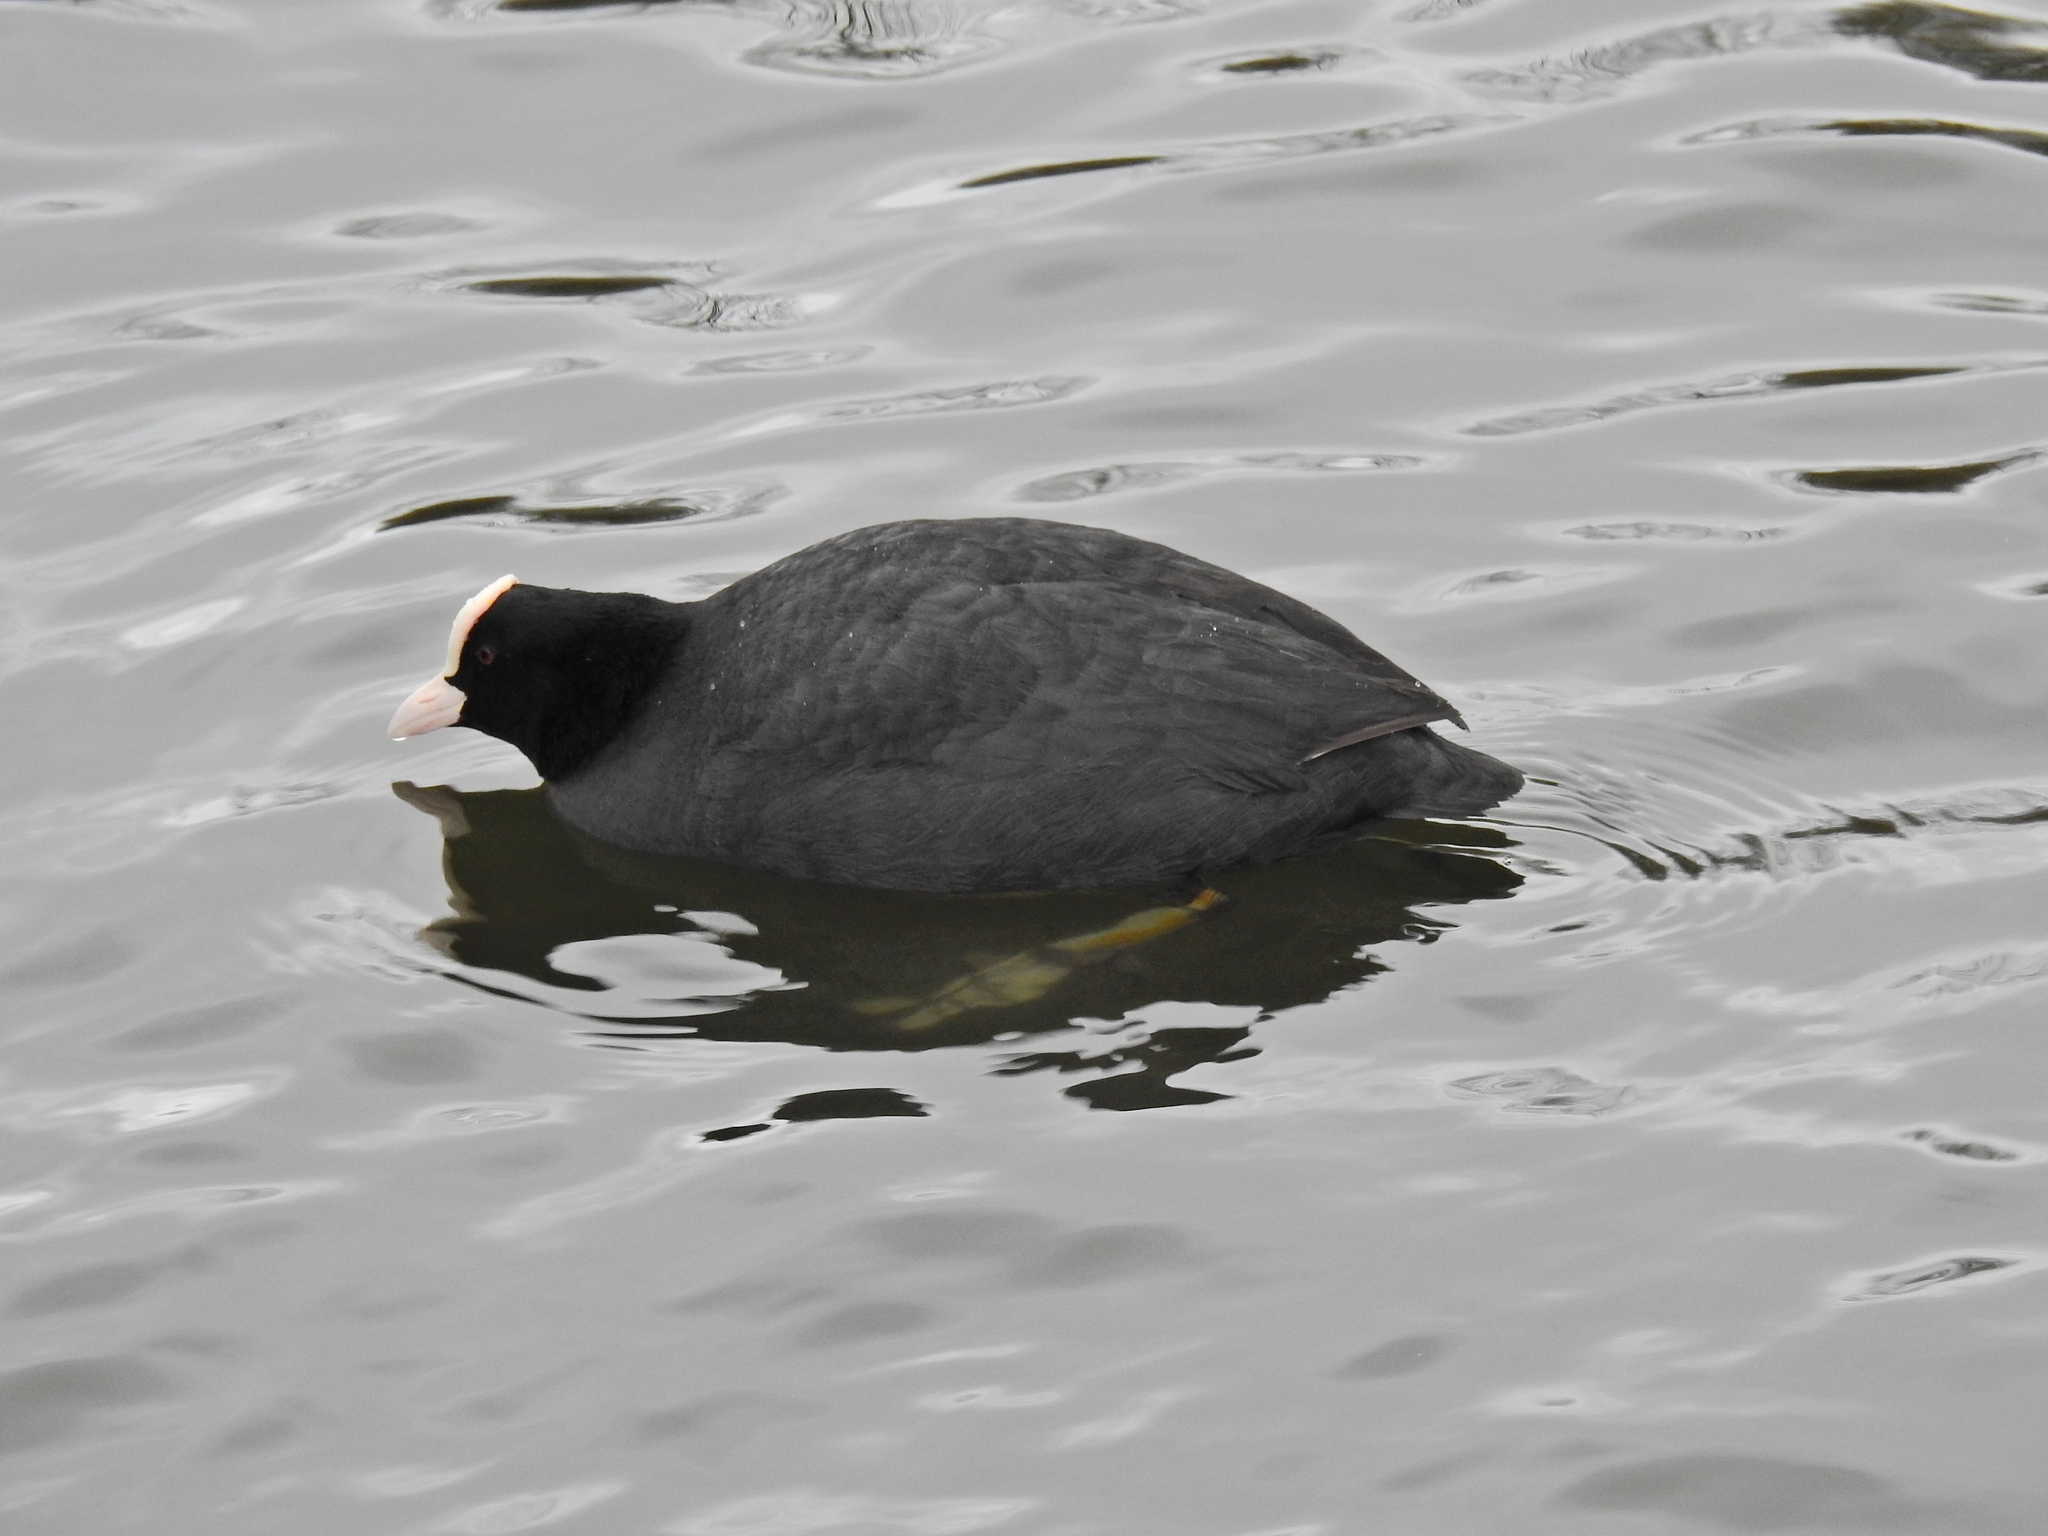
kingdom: Animalia
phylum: Chordata
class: Aves
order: Gruiformes
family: Rallidae
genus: Fulica
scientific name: Fulica atra
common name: Eurasian coot
